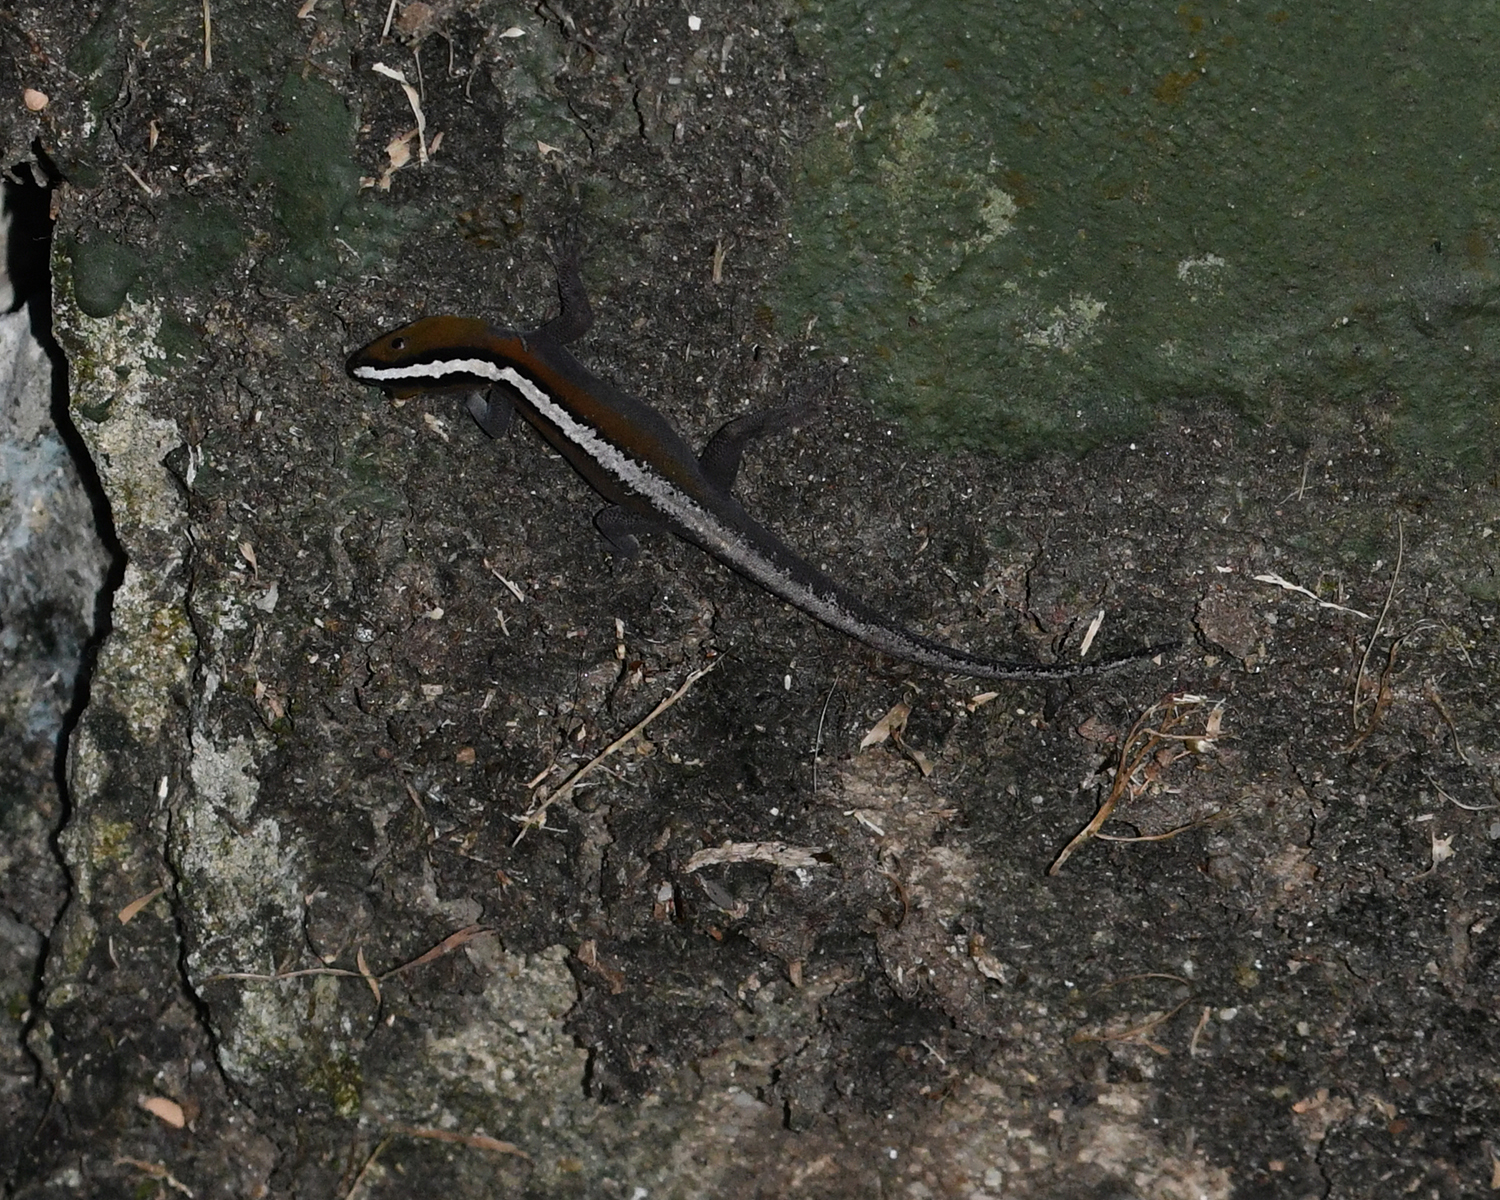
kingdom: Animalia
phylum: Chordata
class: Squamata
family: Sphaerodactylidae
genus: Gonatodes
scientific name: Gonatodes vittatus
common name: Wiegmann's striped gecko
